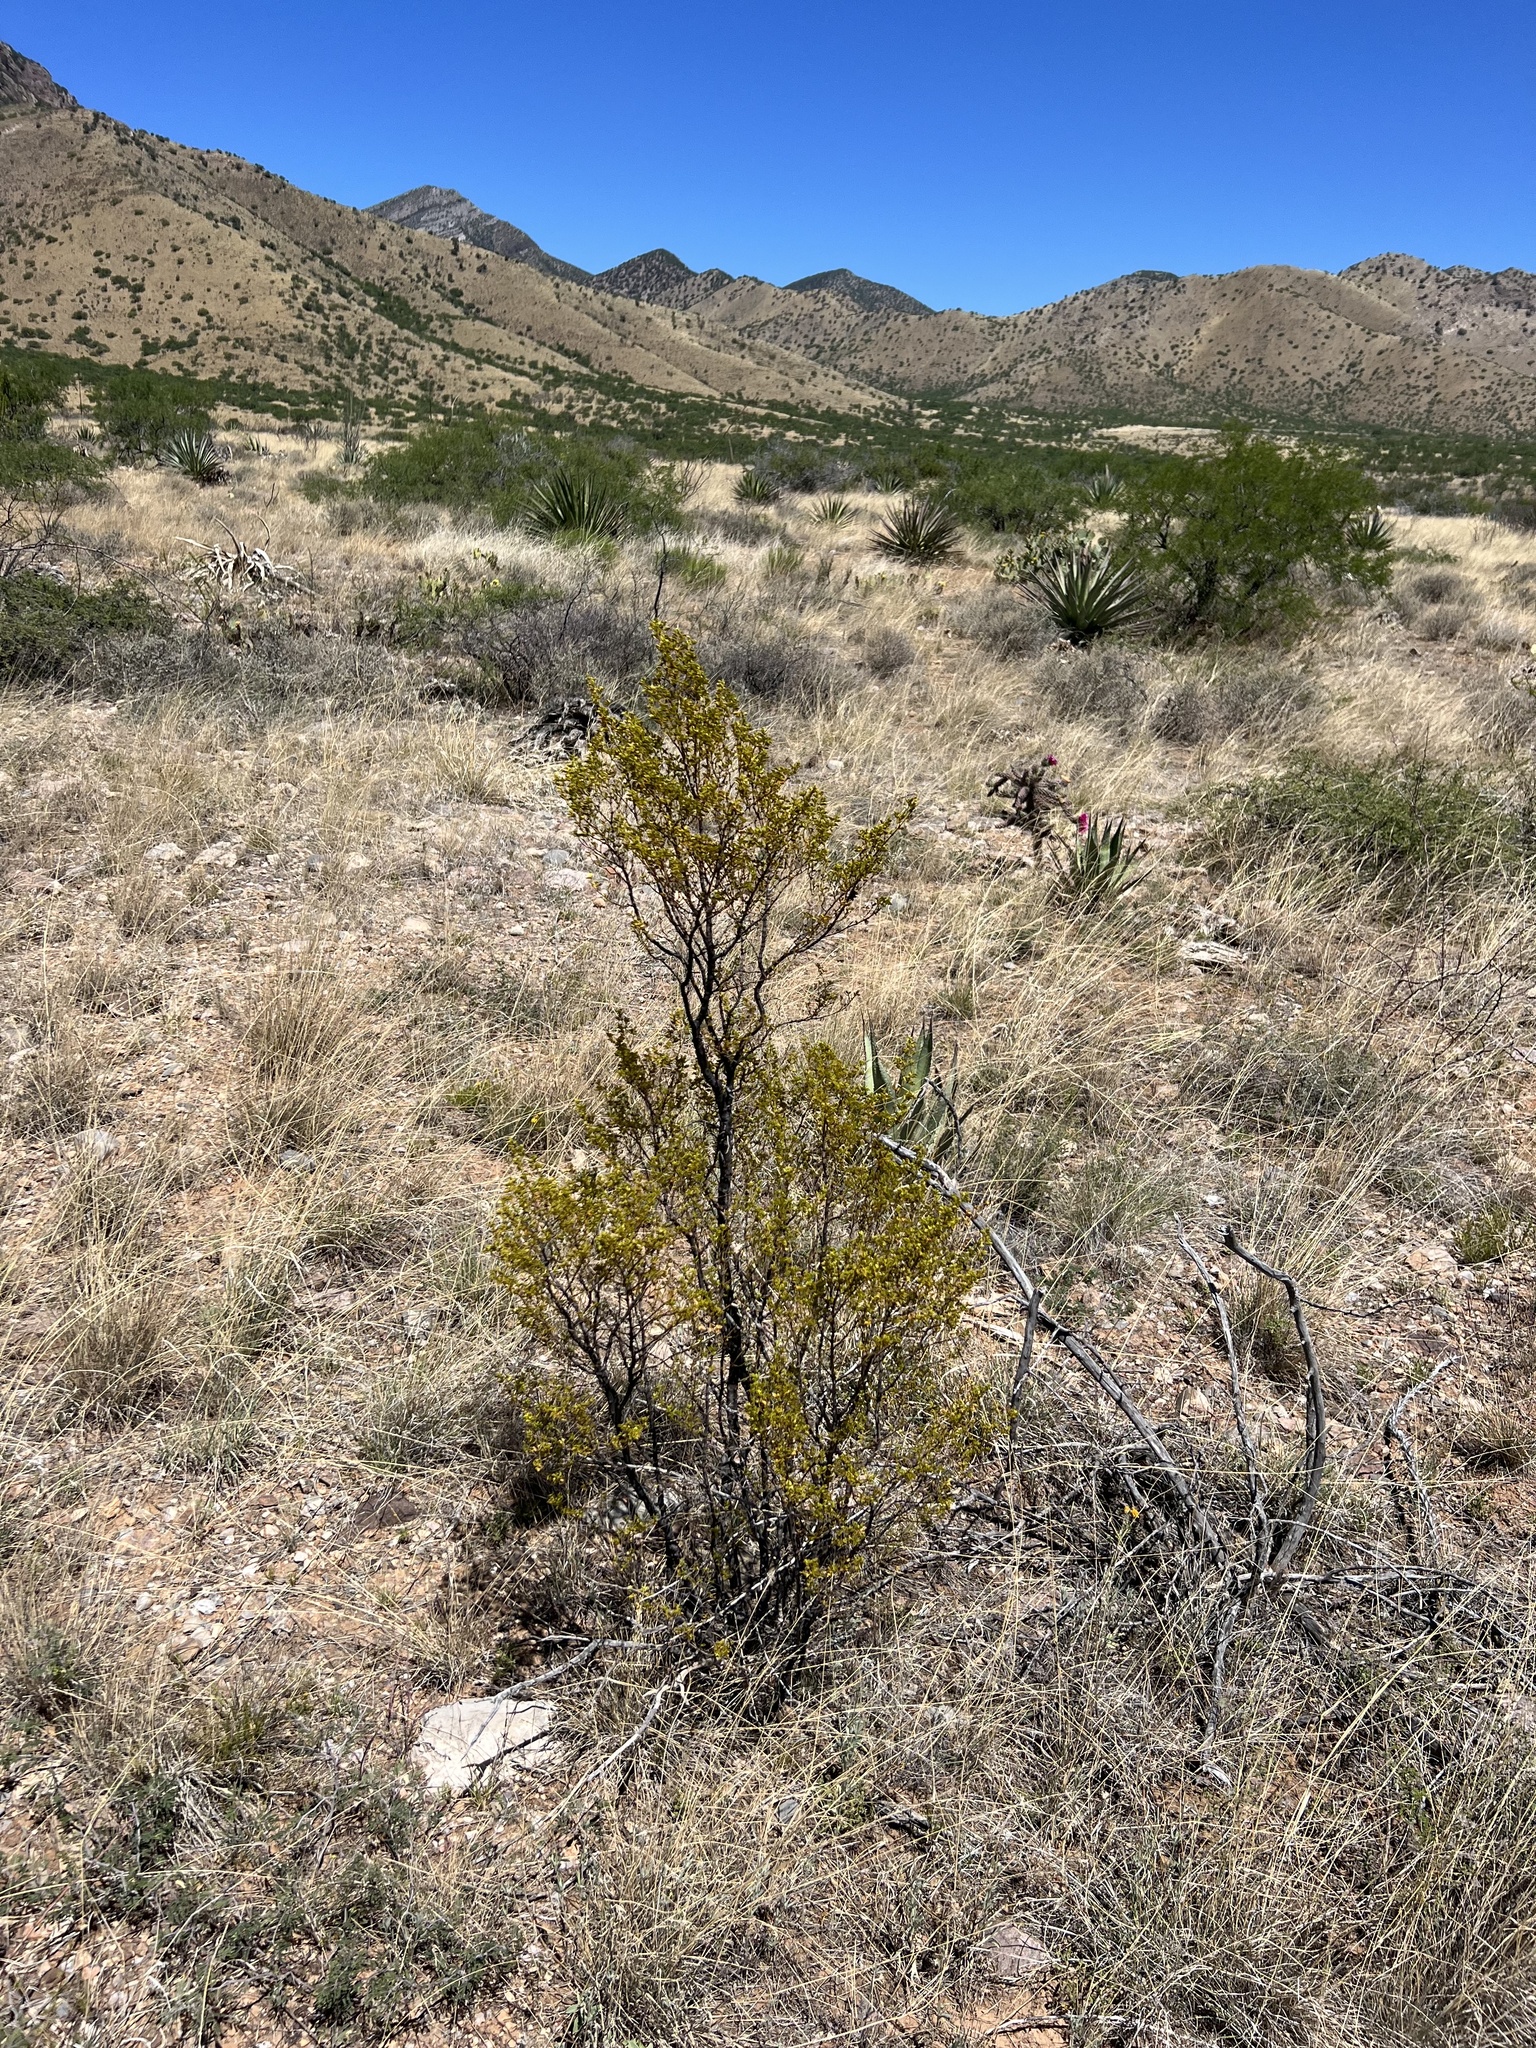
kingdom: Plantae
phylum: Tracheophyta
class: Magnoliopsida
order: Zygophyllales
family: Zygophyllaceae
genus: Larrea
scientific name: Larrea tridentata
